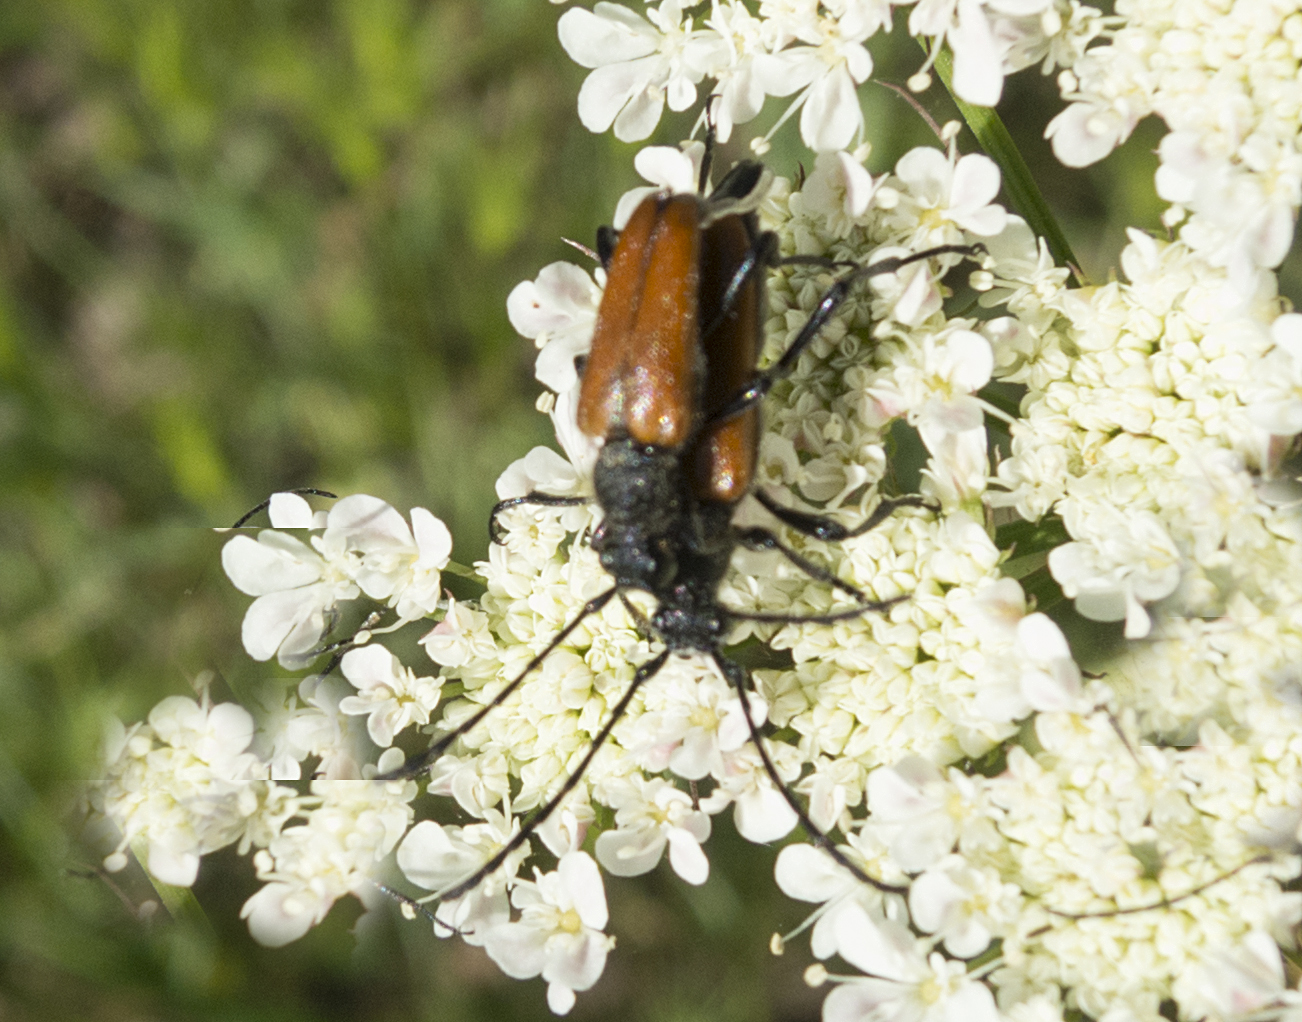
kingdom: Animalia
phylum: Arthropoda
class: Insecta
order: Coleoptera
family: Cerambycidae
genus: Paracorymbia
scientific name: Paracorymbia pallens
